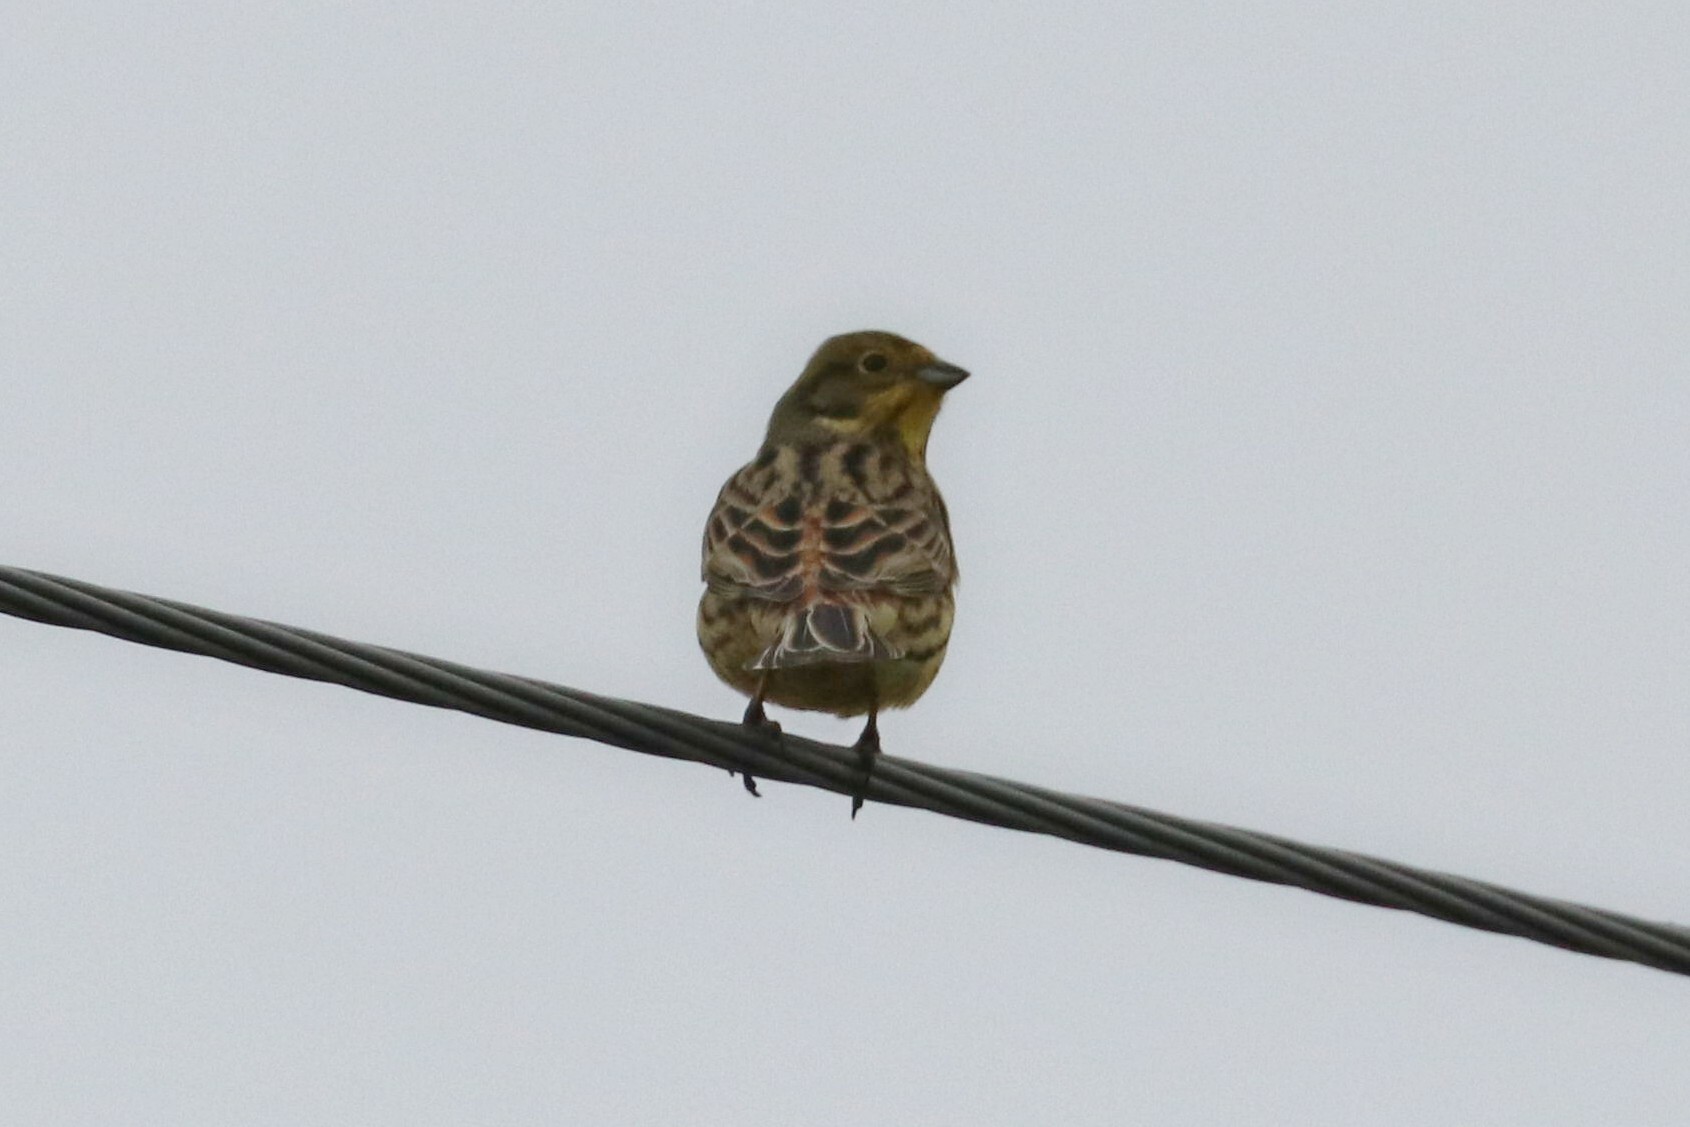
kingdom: Animalia
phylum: Chordata
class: Aves
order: Passeriformes
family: Emberizidae
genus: Emberiza
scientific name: Emberiza citrinella
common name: Yellowhammer
